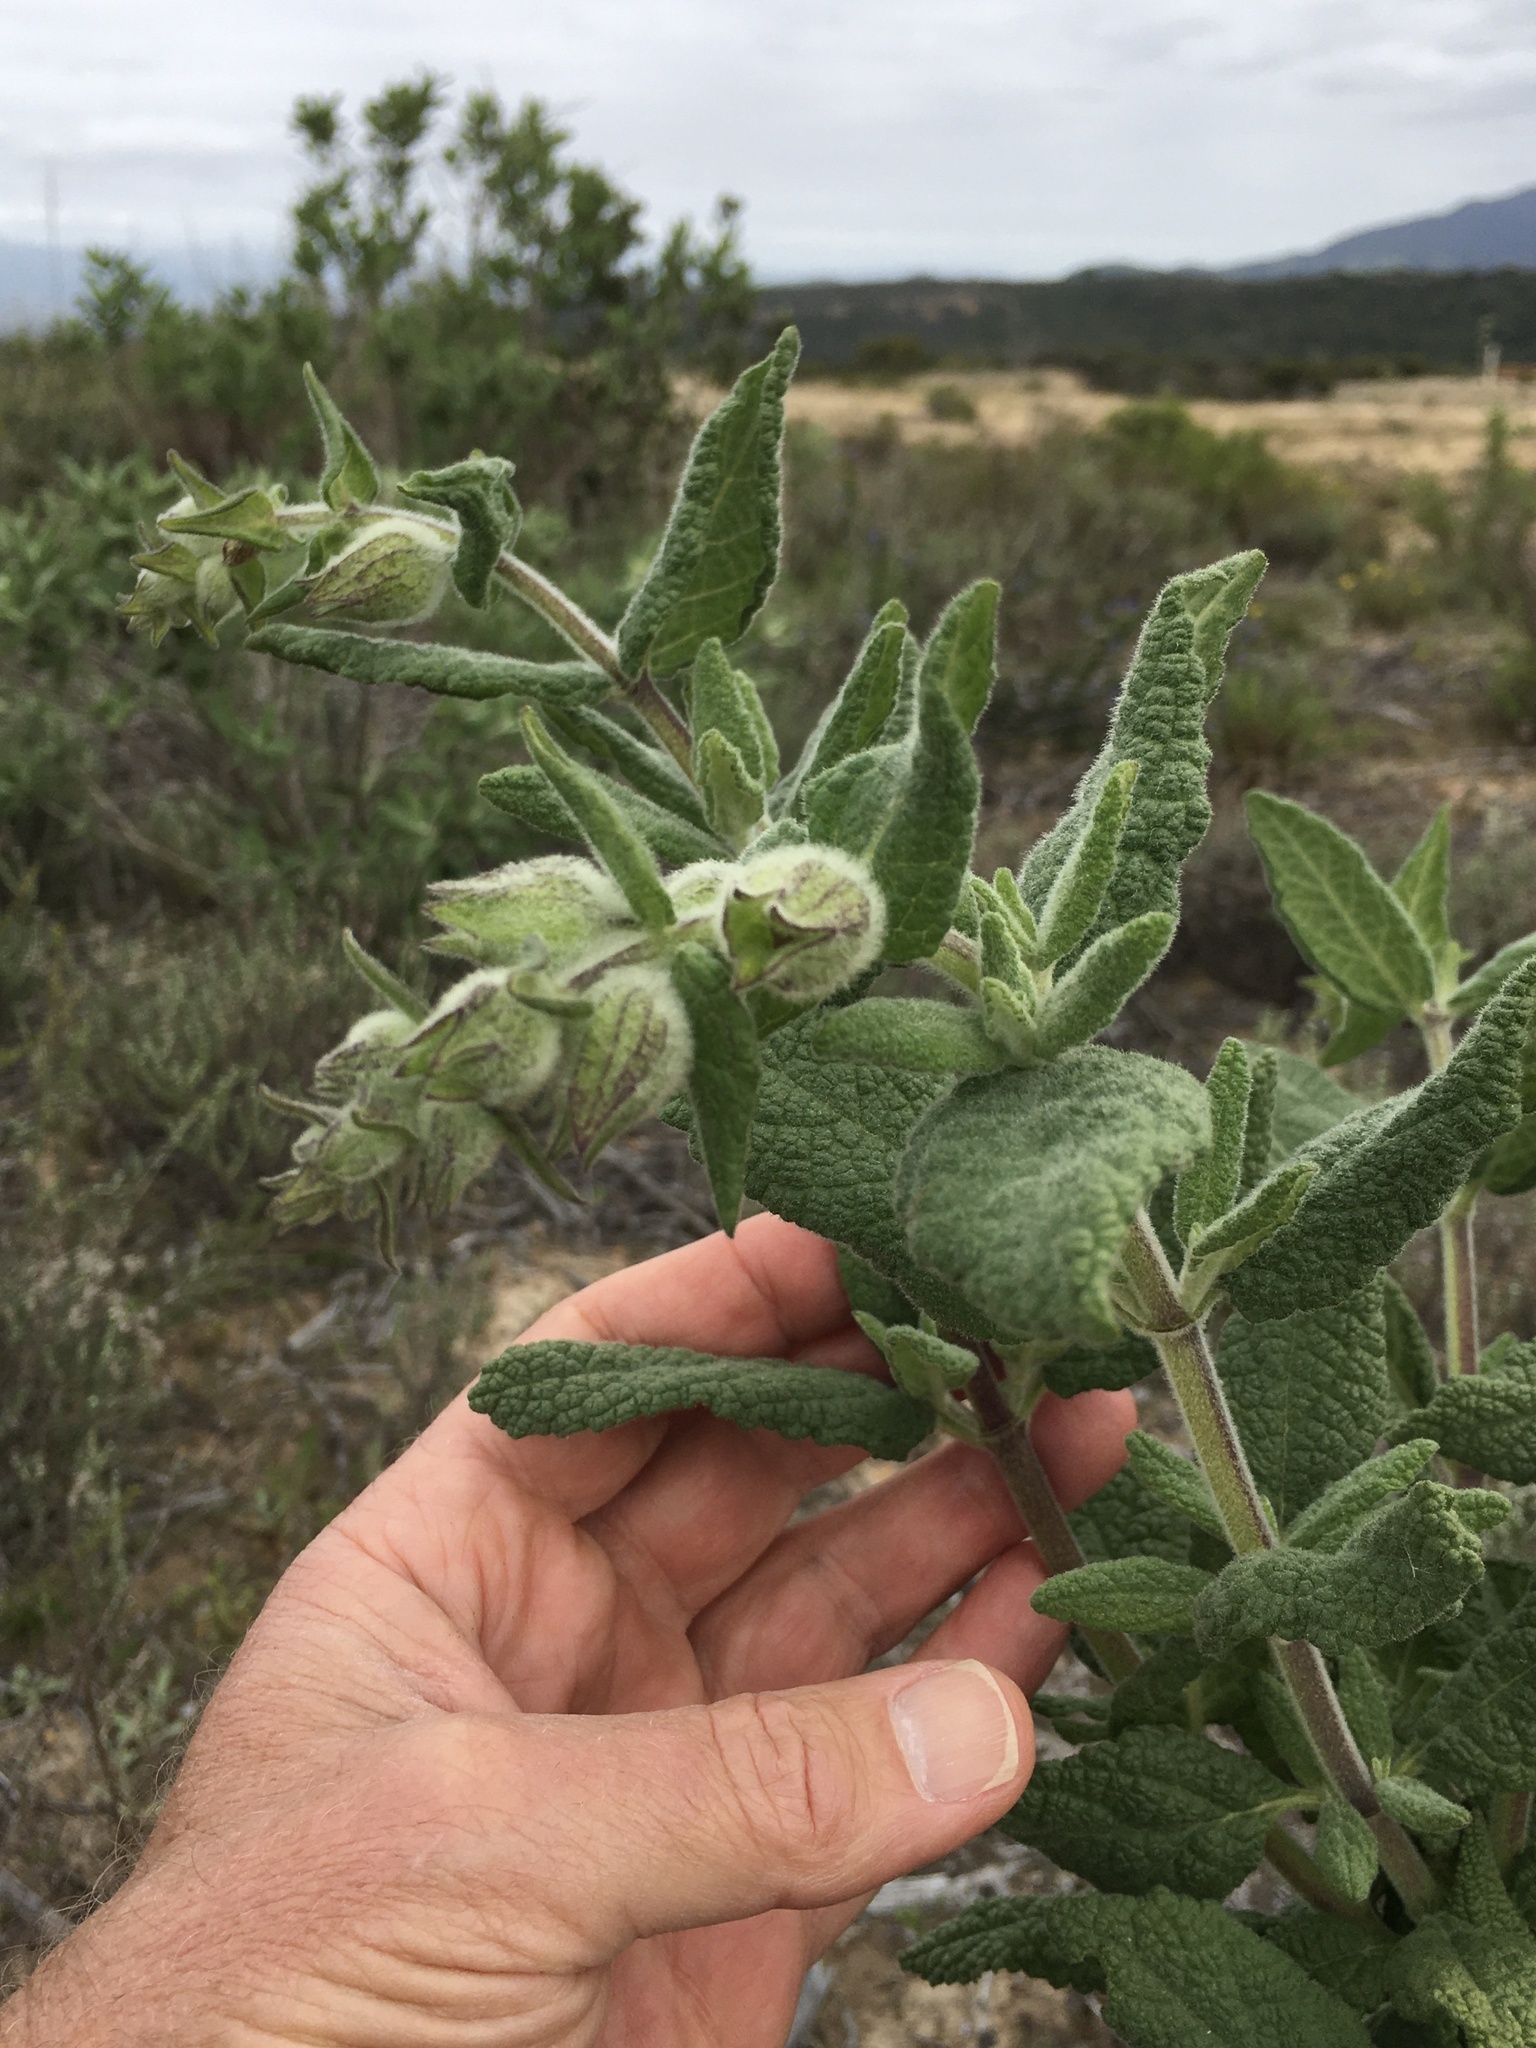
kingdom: Plantae
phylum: Tracheophyta
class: Magnoliopsida
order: Lamiales
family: Lamiaceae
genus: Lepechinia
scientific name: Lepechinia calycina
